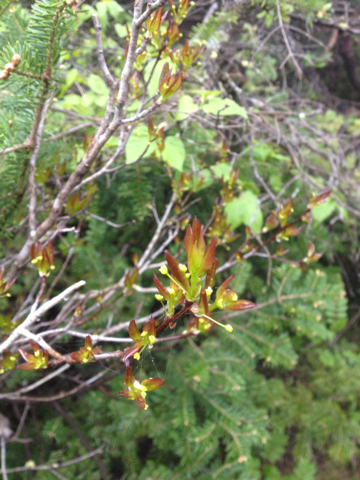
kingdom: Plantae
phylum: Tracheophyta
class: Magnoliopsida
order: Aquifoliales
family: Aquifoliaceae
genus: Ilex
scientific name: Ilex mucronata
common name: Catberry
